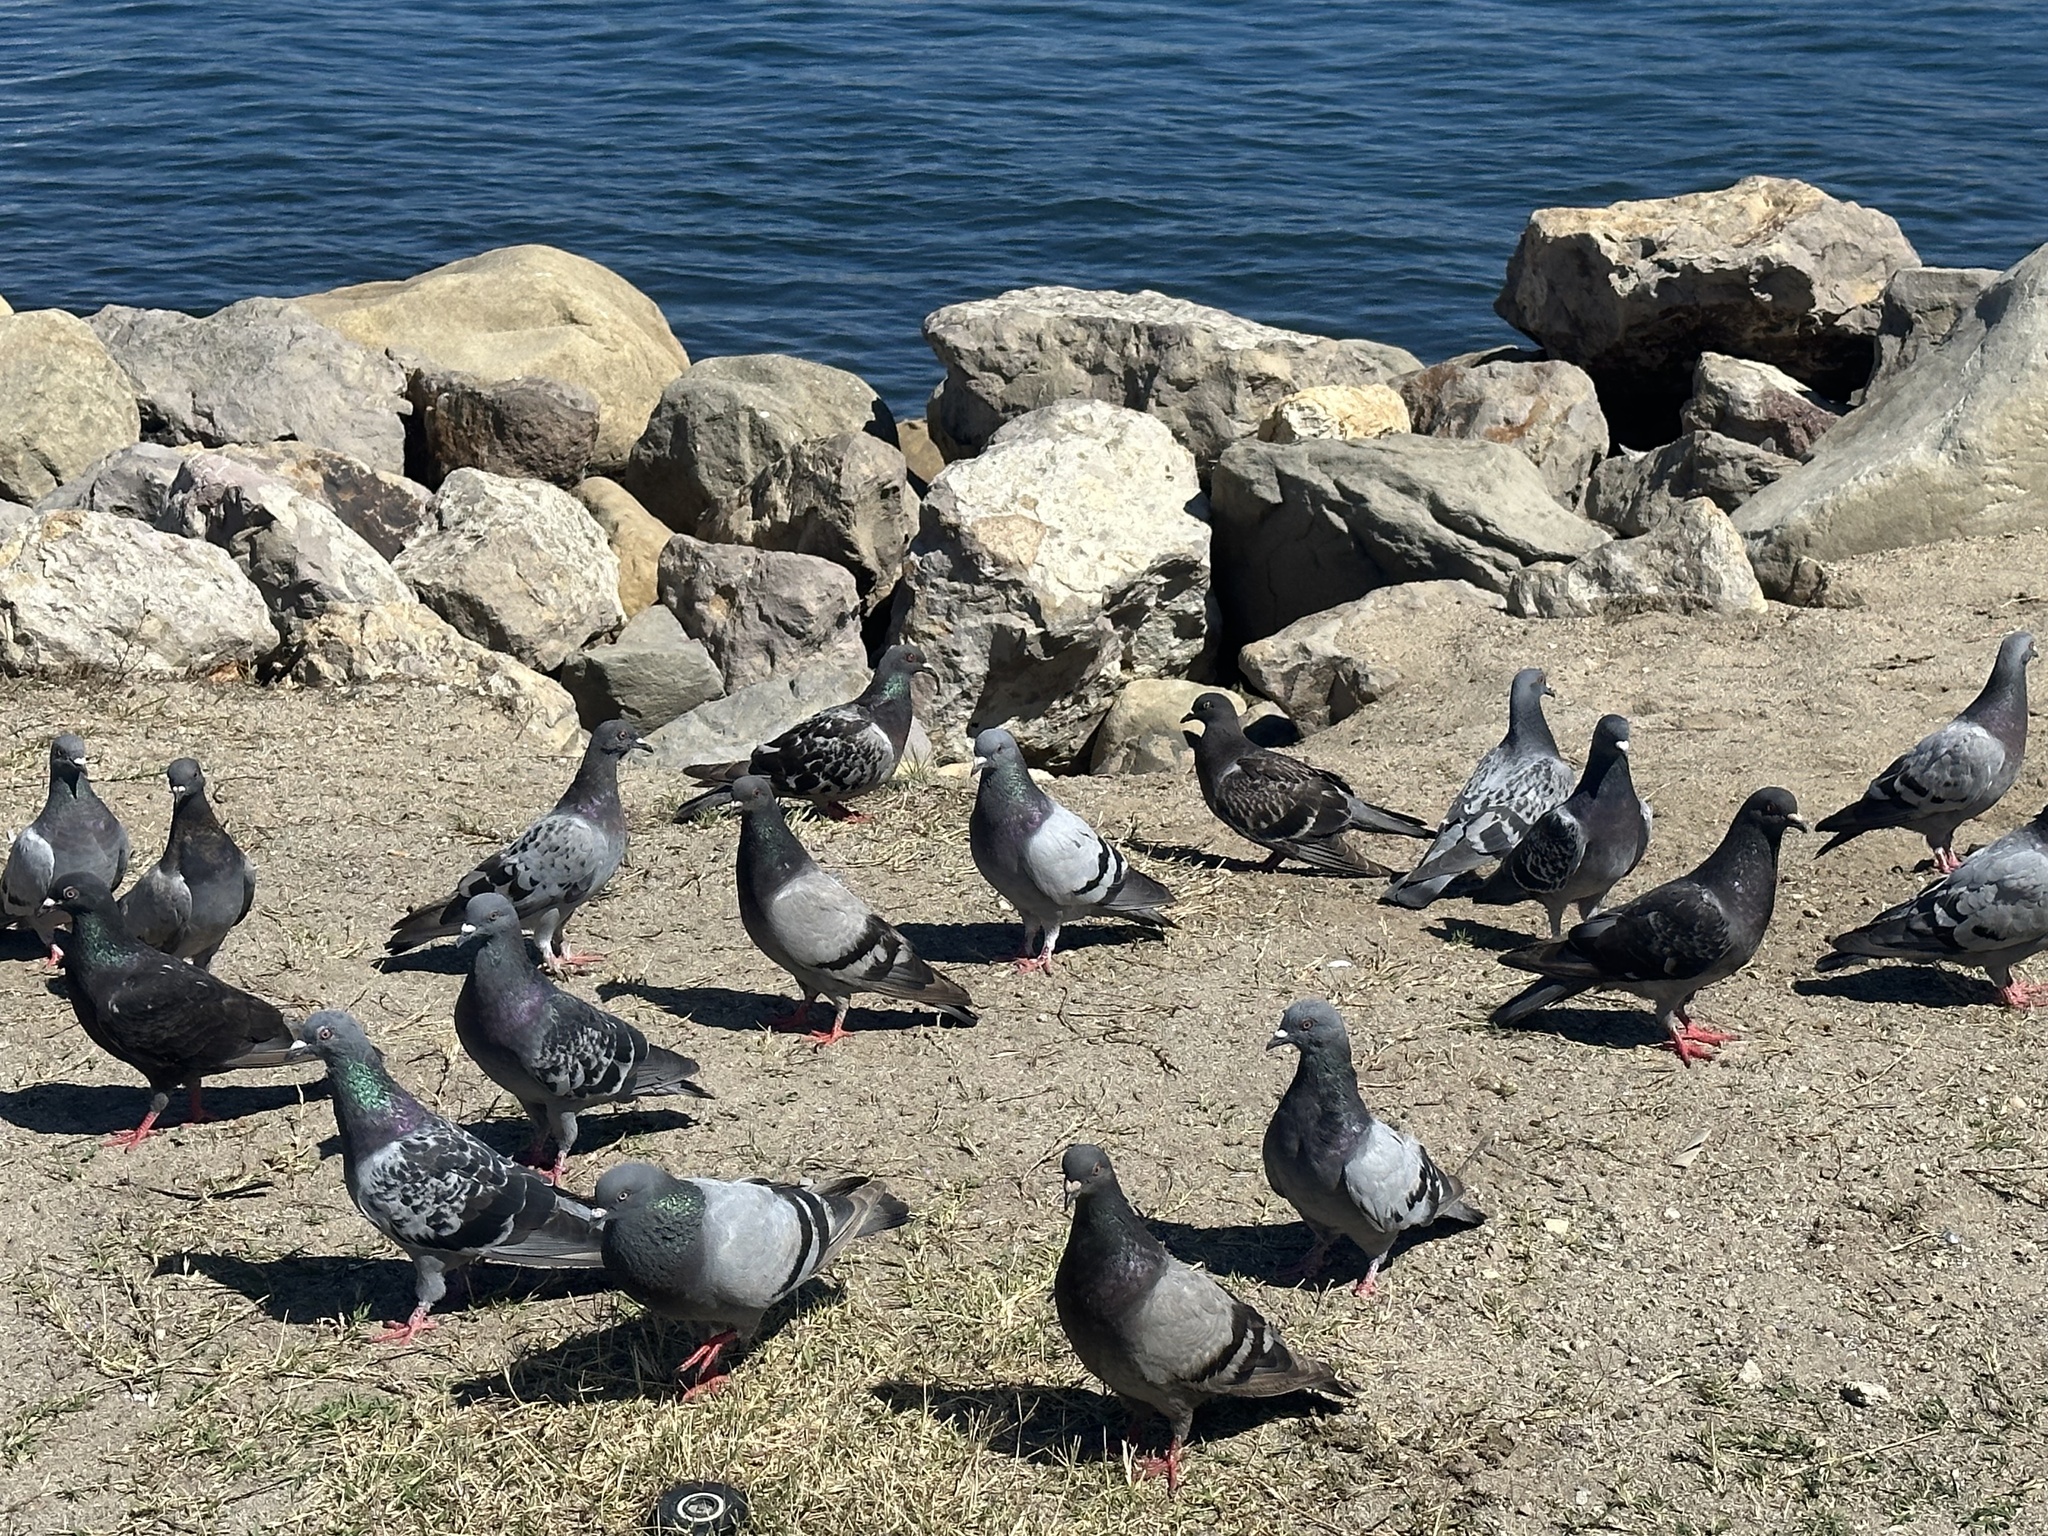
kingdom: Animalia
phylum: Chordata
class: Aves
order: Columbiformes
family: Columbidae
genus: Columba
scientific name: Columba livia
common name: Rock pigeon
